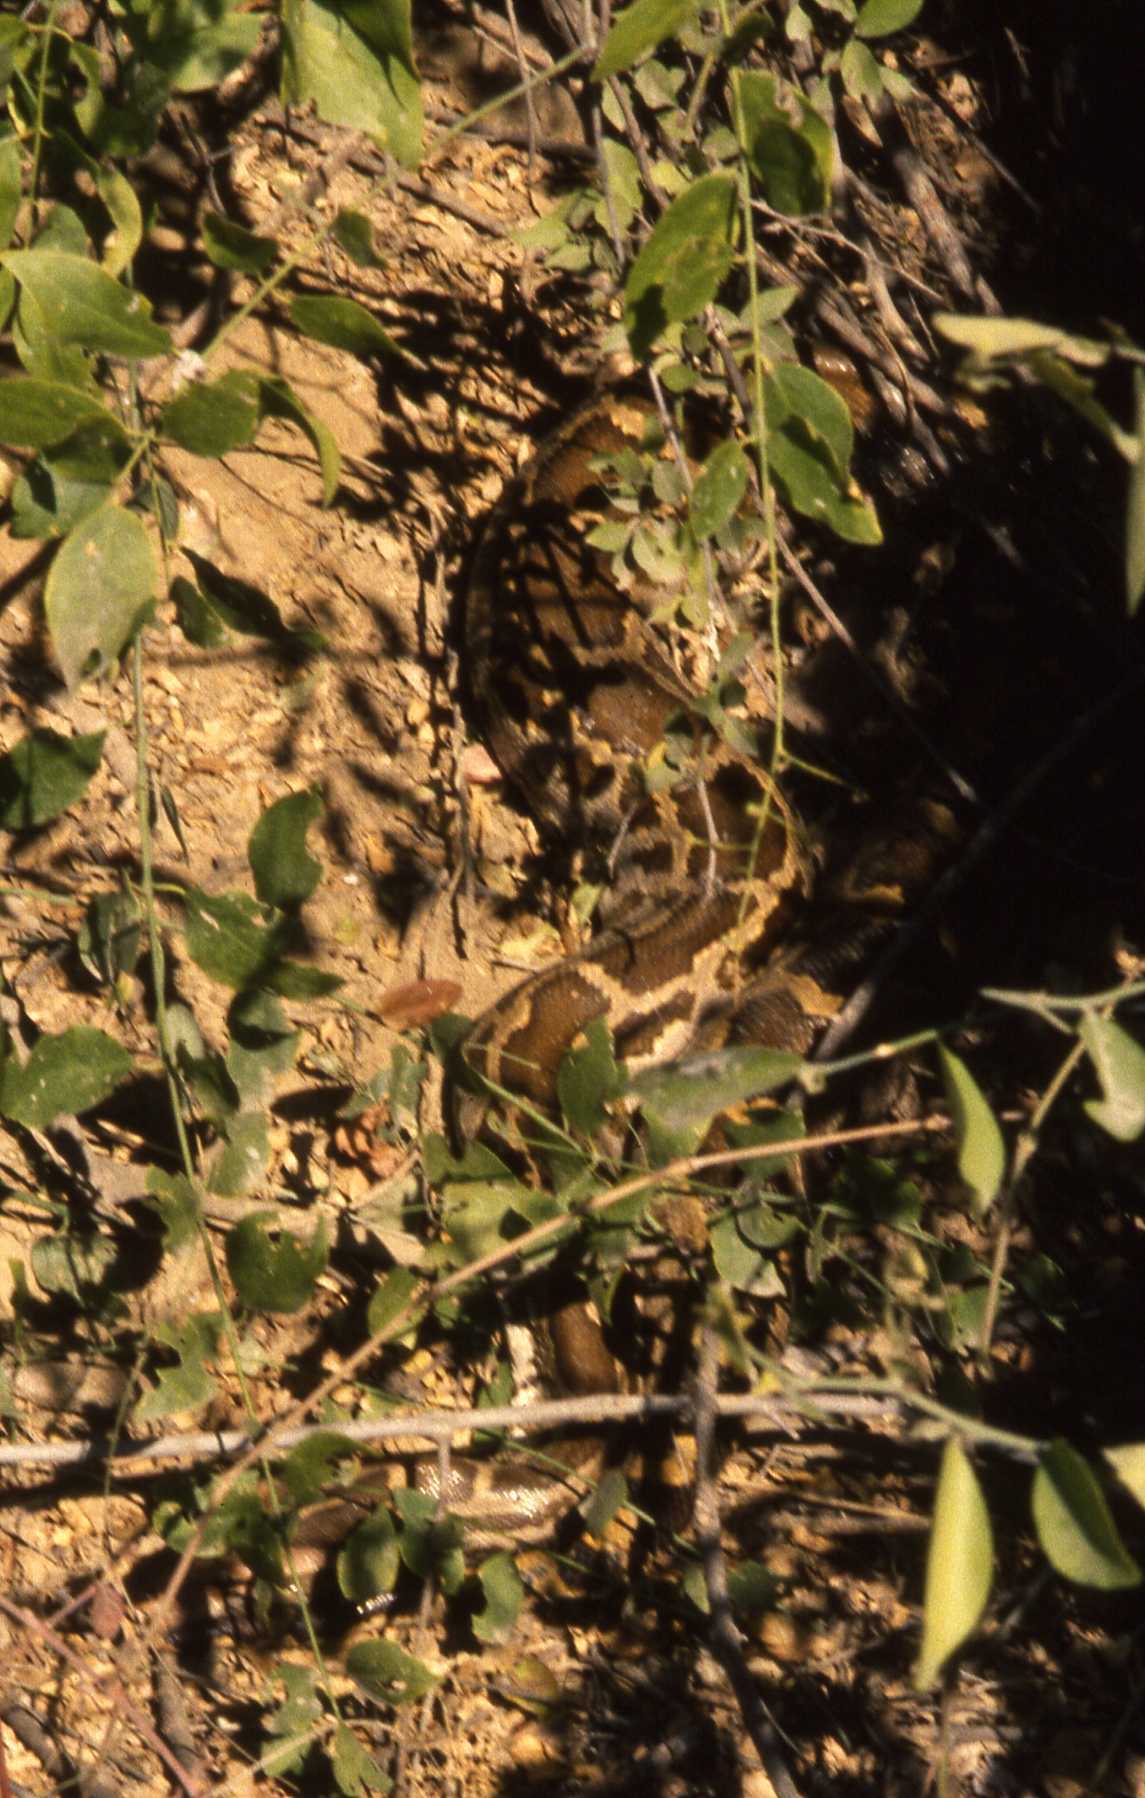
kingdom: Animalia
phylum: Chordata
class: Squamata
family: Pythonidae
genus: Python
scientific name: Python molurus
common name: Indian rock python
